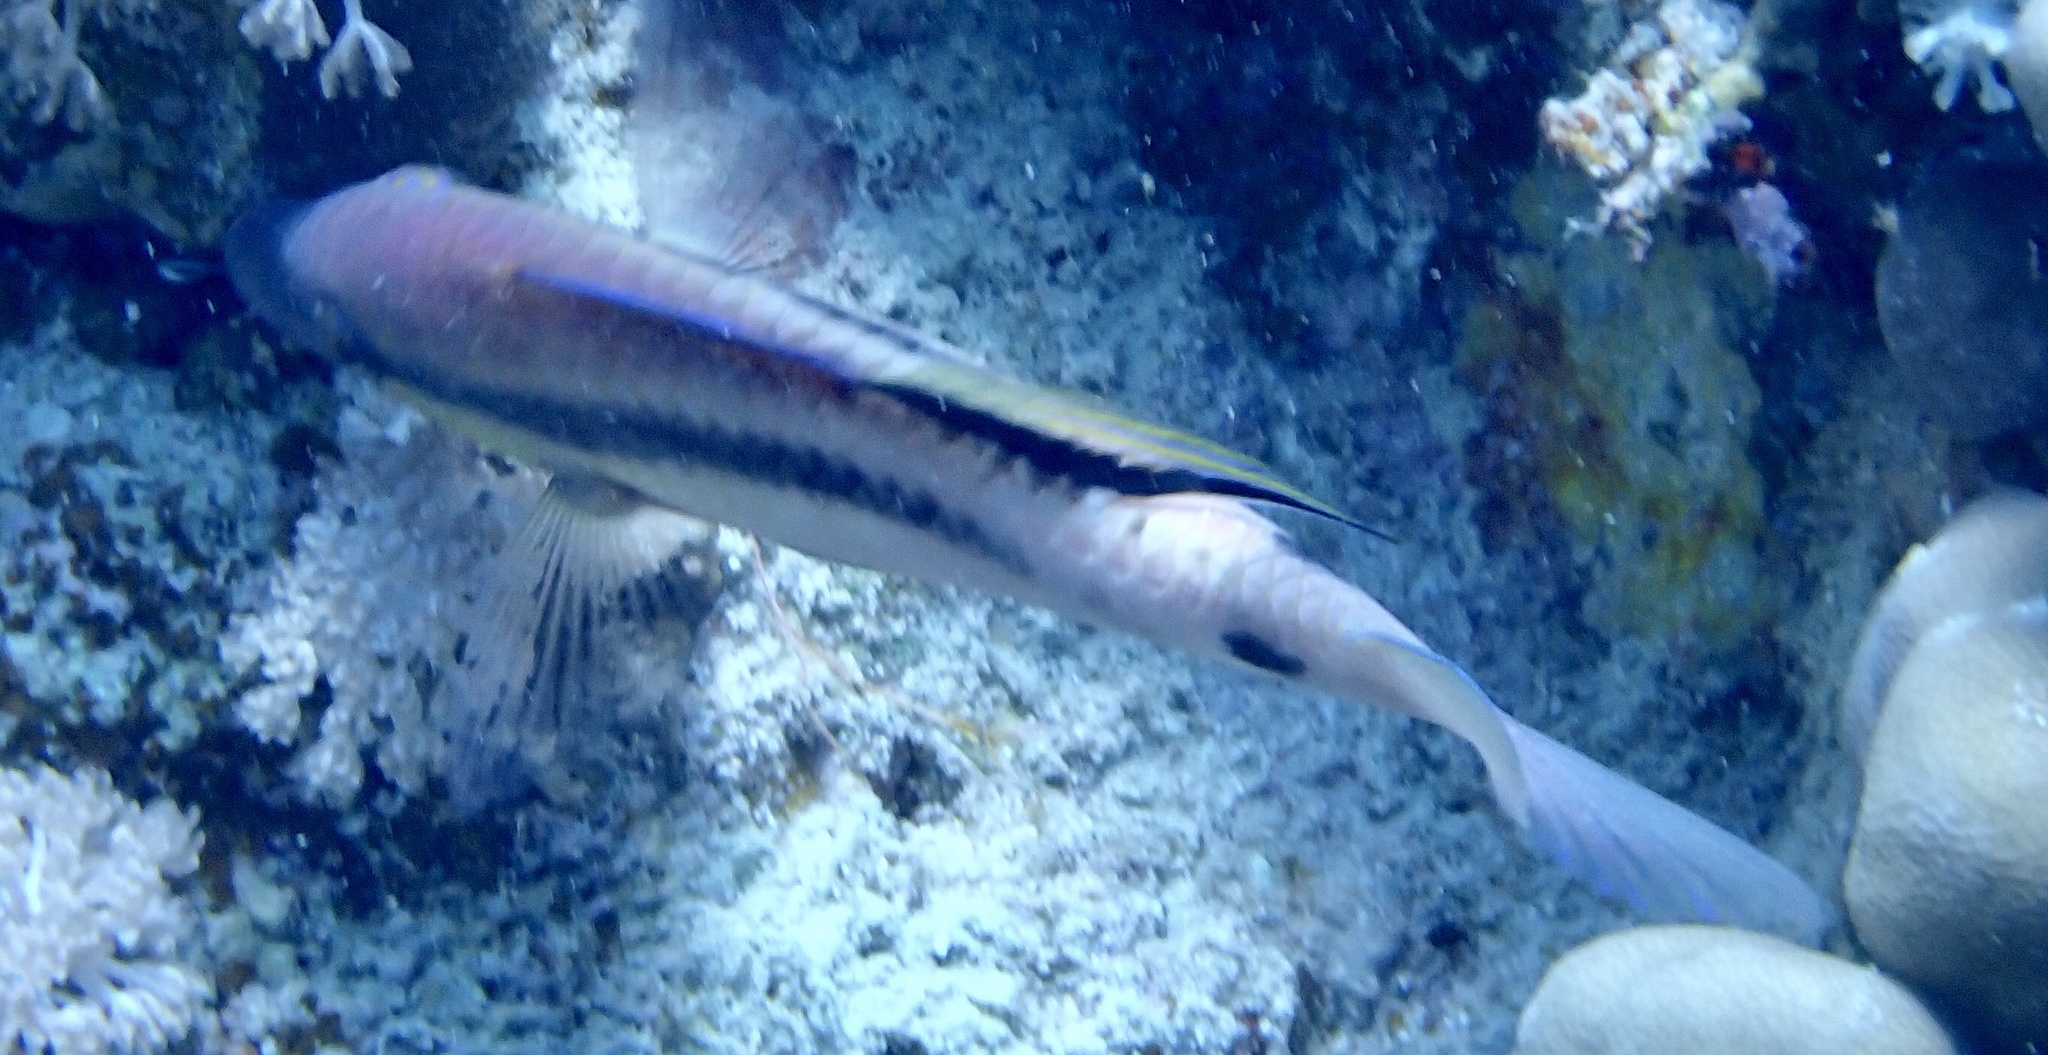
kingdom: Animalia
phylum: Chordata
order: Perciformes
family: Mullidae
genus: Parupeneus
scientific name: Parupeneus macronemus
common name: Long-barbel goatfish
